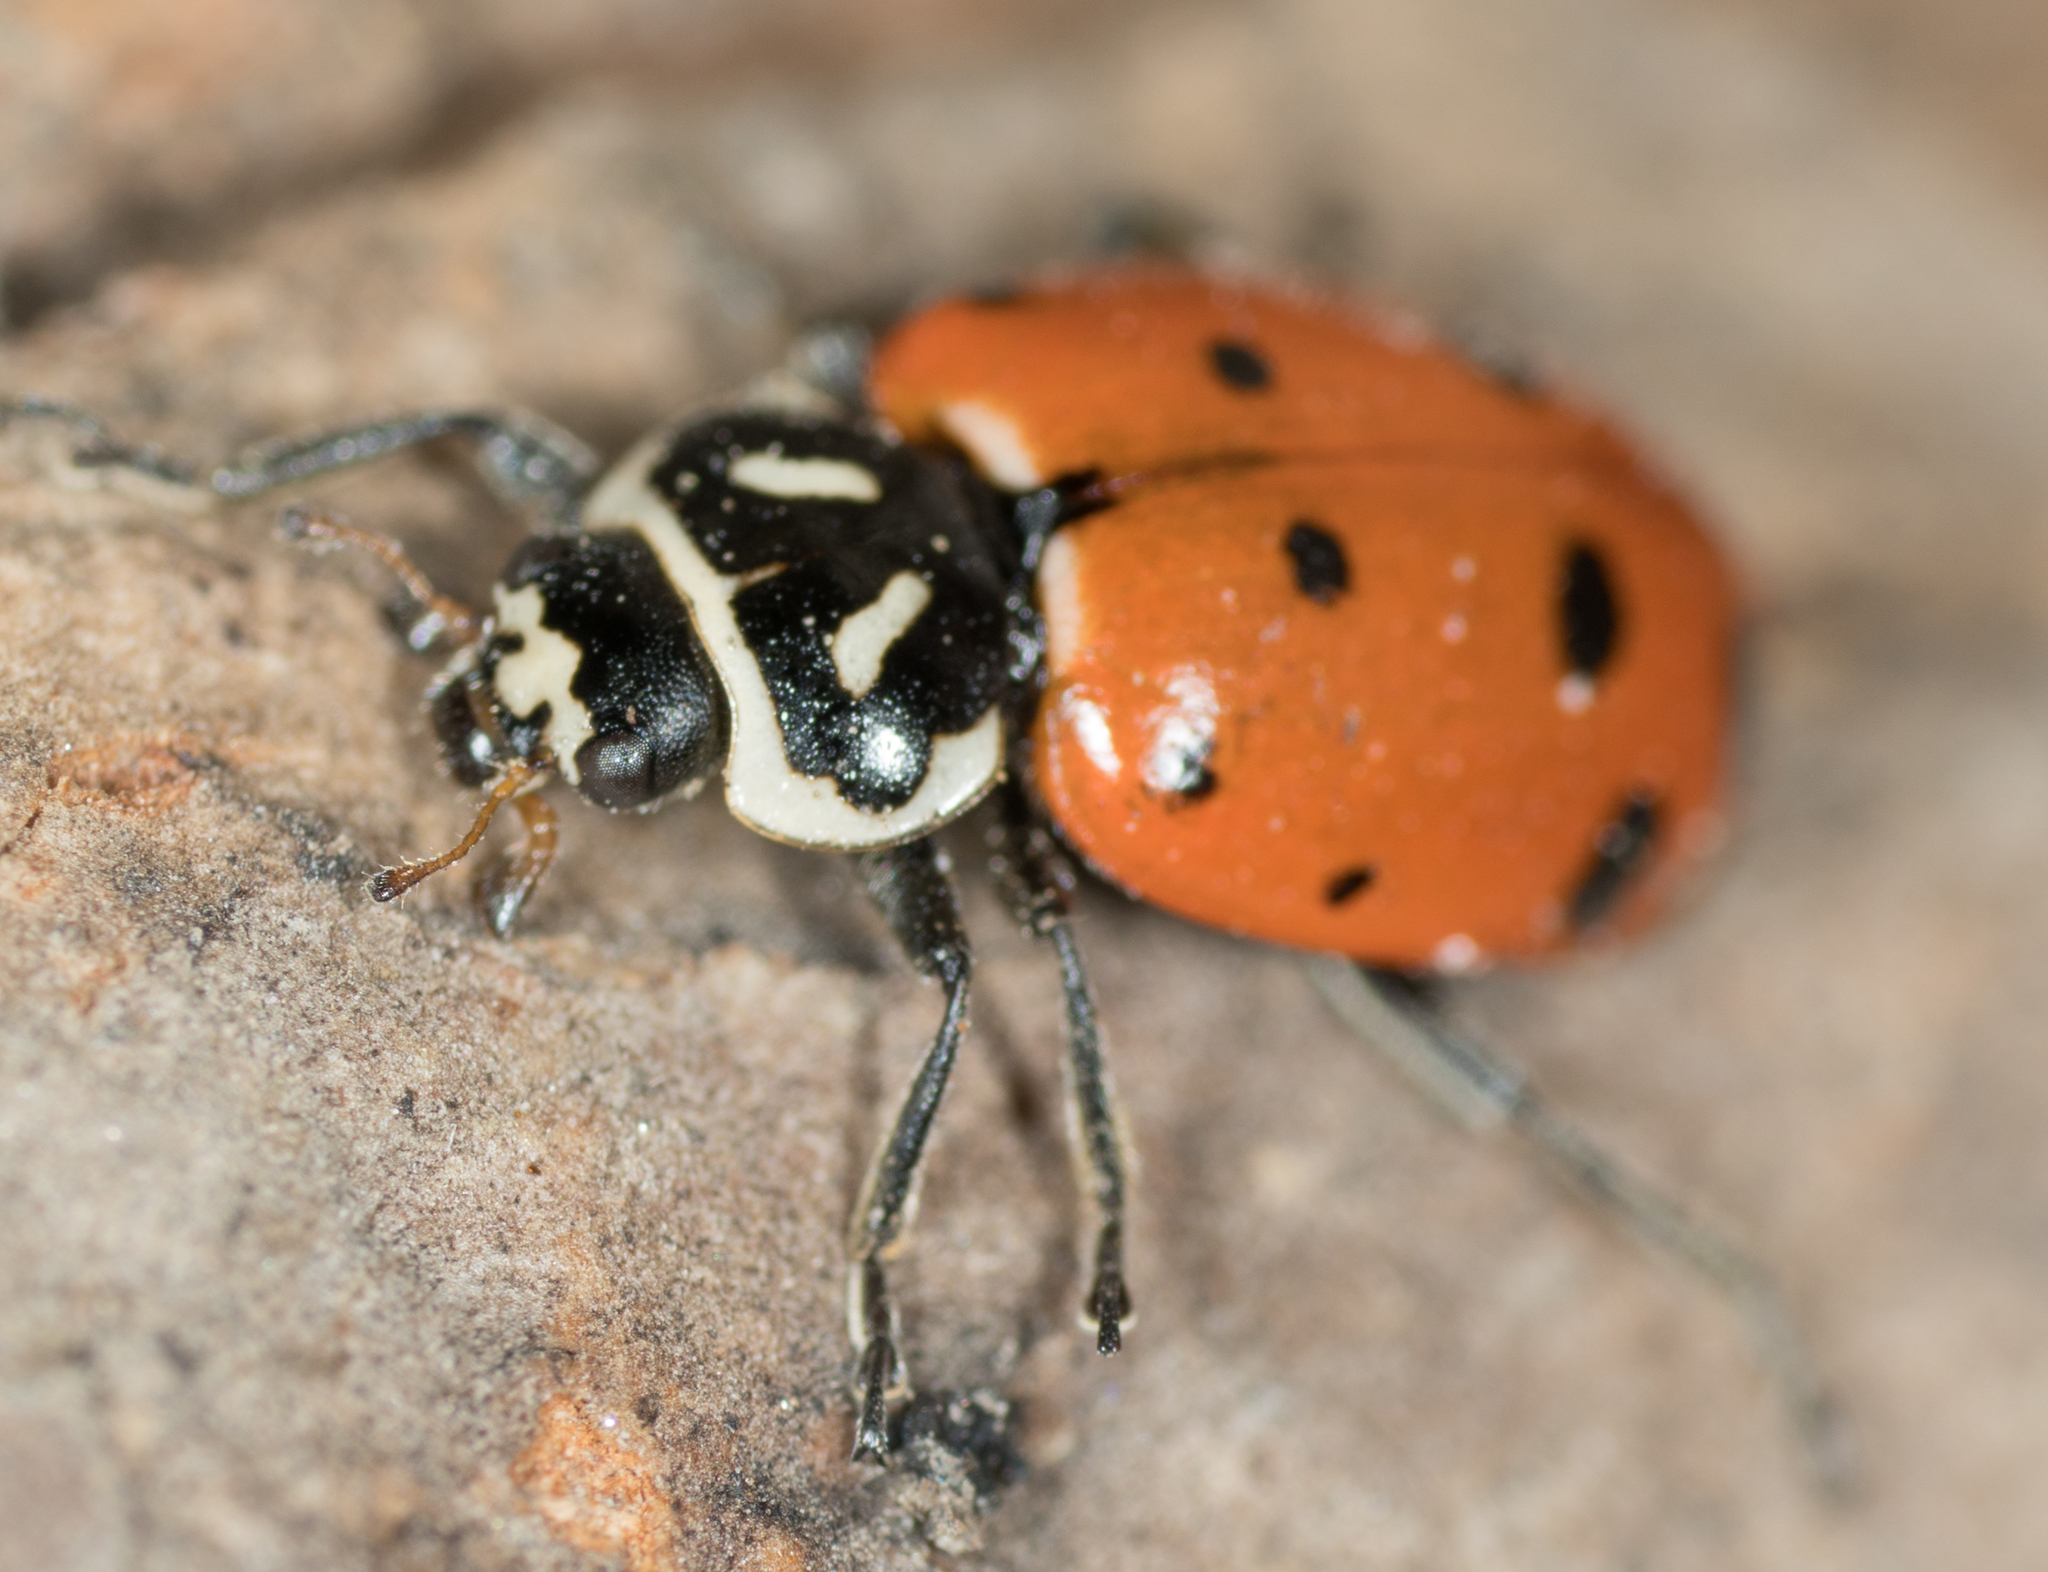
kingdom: Animalia
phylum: Arthropoda
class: Insecta
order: Coleoptera
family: Coccinellidae
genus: Hippodamia
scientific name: Hippodamia convergens
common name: Convergent lady beetle
